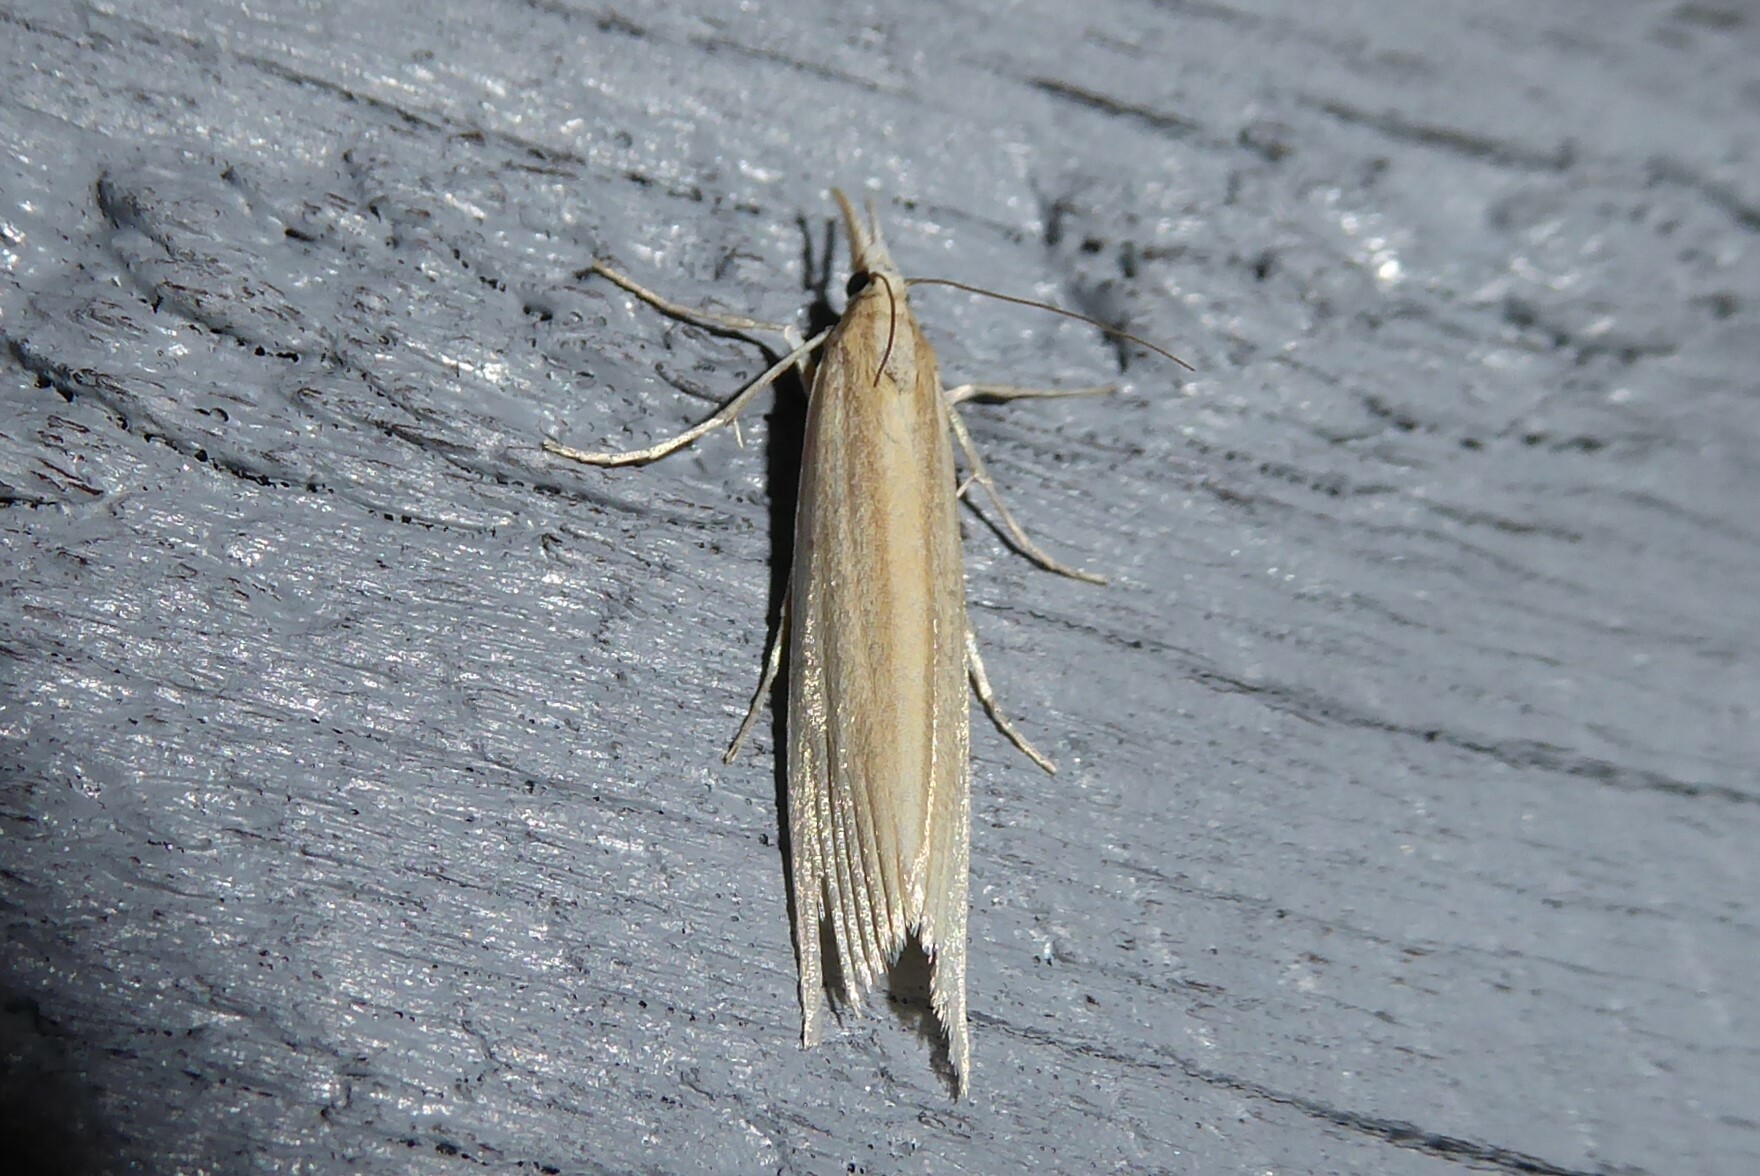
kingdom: Animalia
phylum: Arthropoda
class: Insecta
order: Lepidoptera
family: Crambidae
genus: Orocrambus
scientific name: Orocrambus angustipennis
